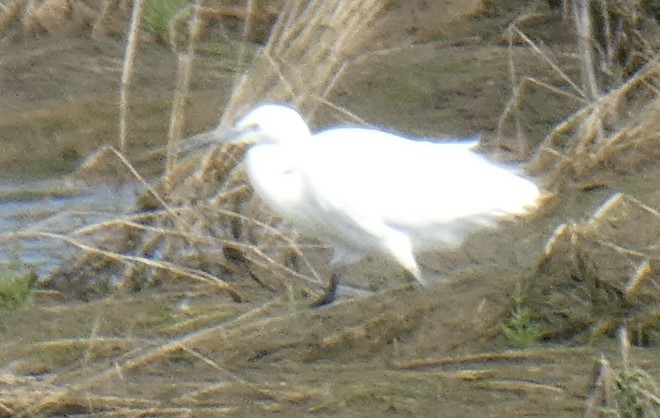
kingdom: Animalia
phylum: Chordata
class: Aves
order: Pelecaniformes
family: Ardeidae
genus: Egretta
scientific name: Egretta garzetta
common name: Little egret
